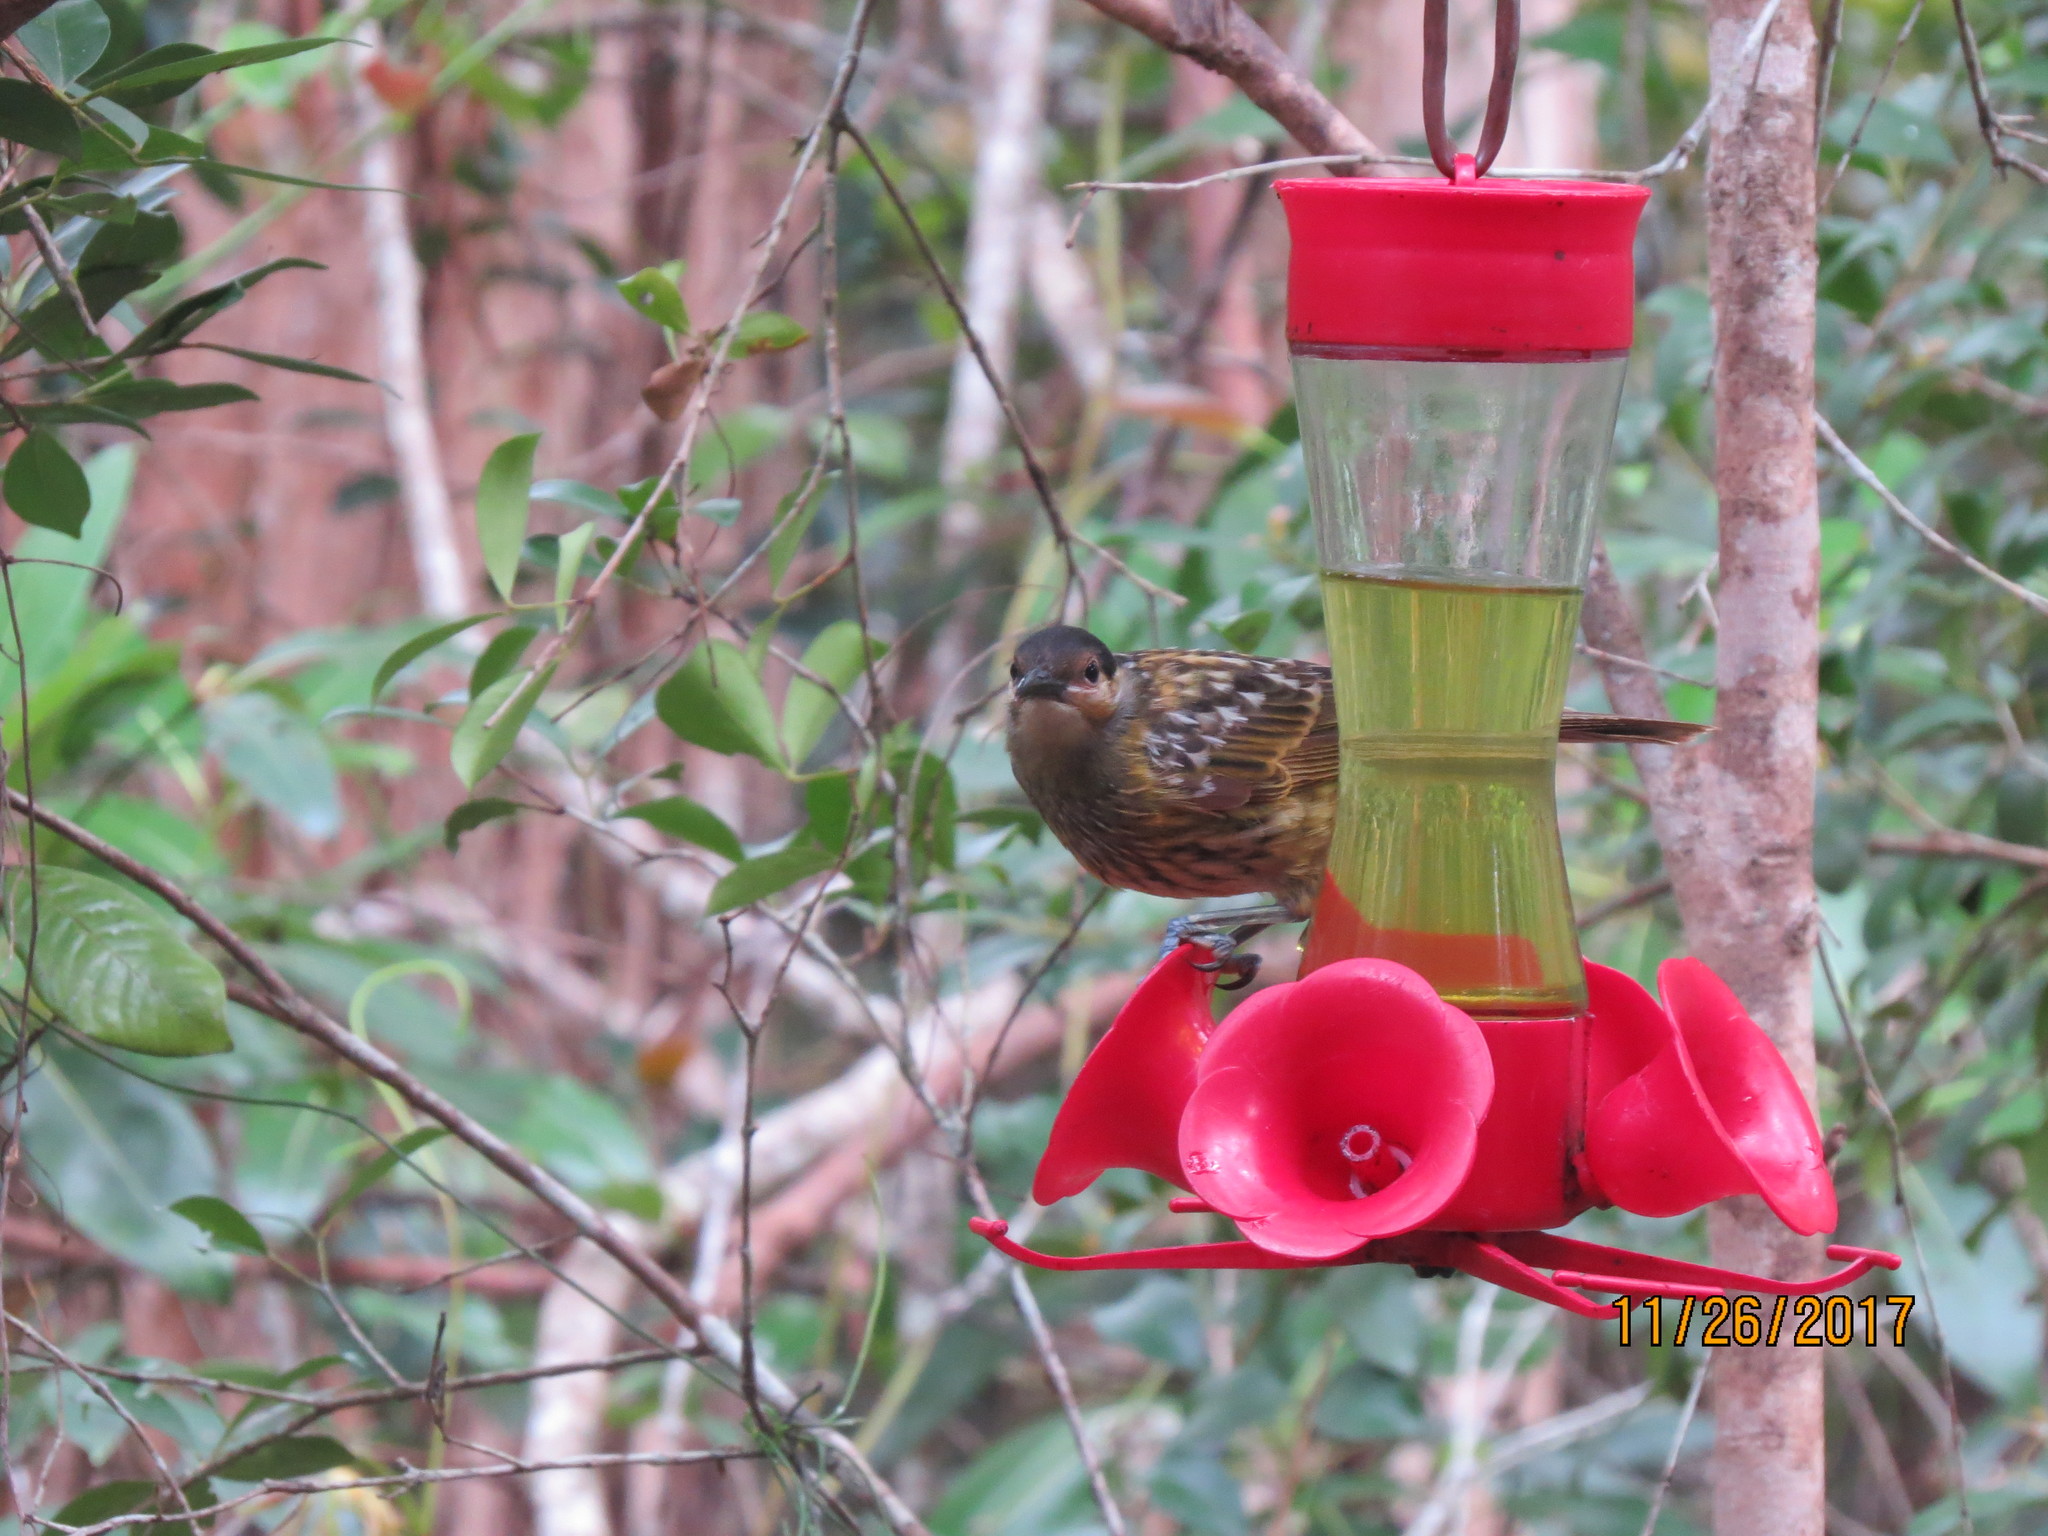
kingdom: Animalia
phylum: Chordata
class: Aves
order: Passeriformes
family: Meliphagidae
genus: Xanthotis
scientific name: Xanthotis macleayanus
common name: Macleay's honeyeater
